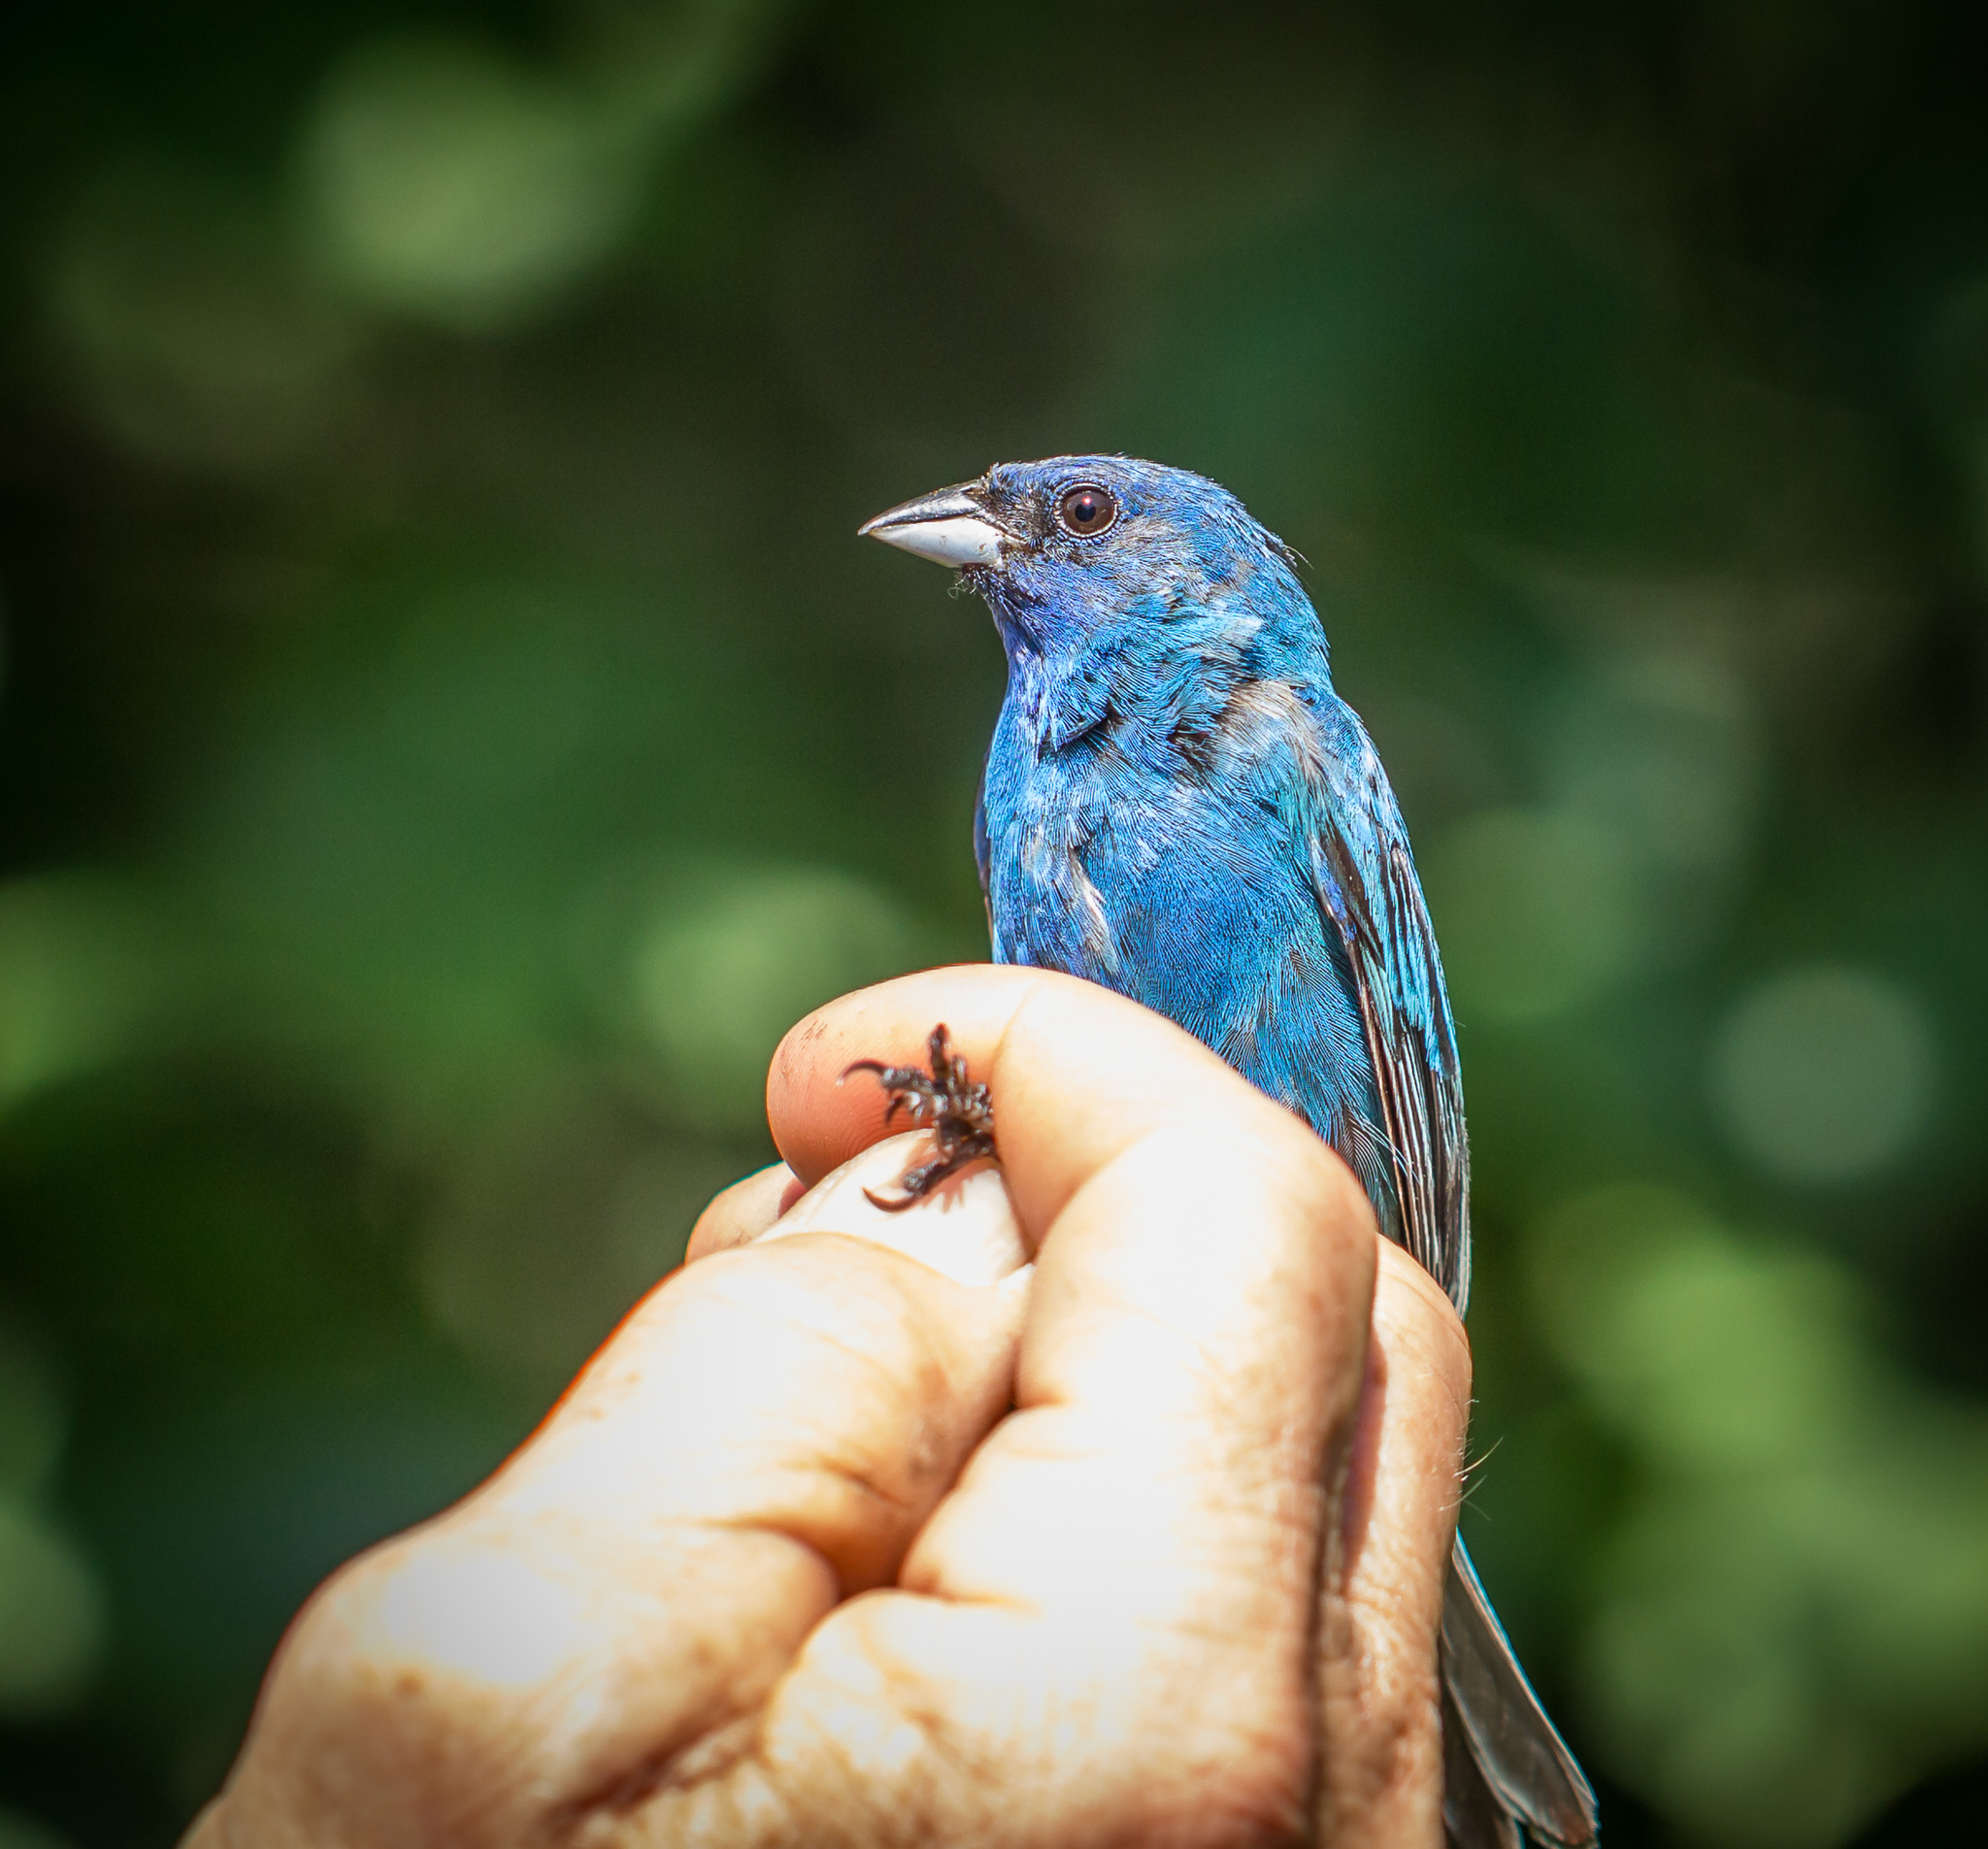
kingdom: Animalia
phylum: Chordata
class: Aves
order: Passeriformes
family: Cardinalidae
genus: Passerina
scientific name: Passerina cyanea
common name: Indigo bunting
